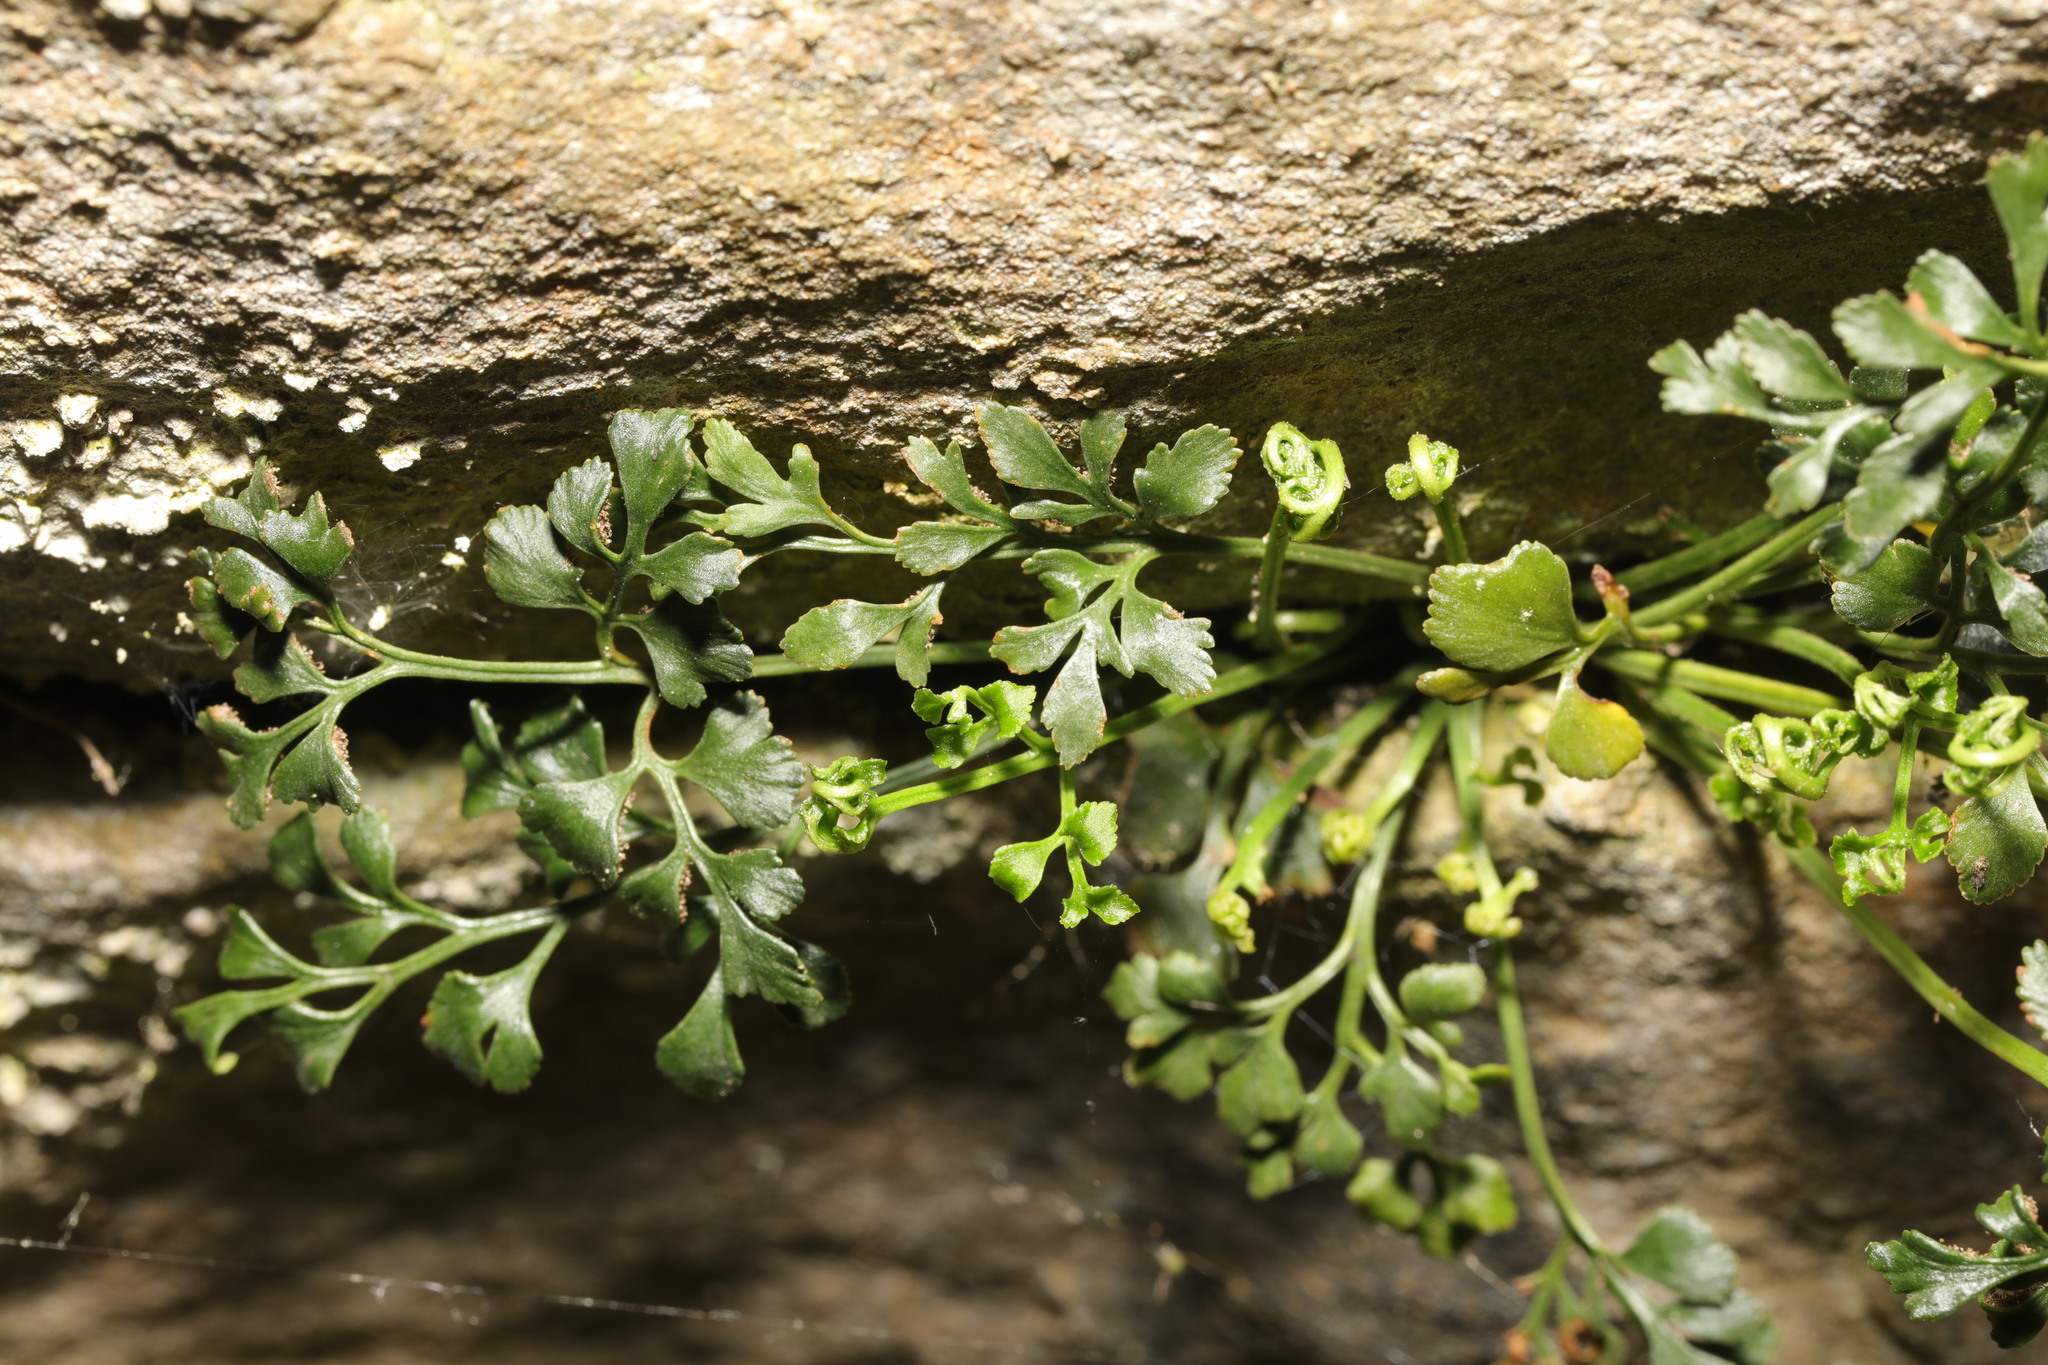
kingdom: Plantae
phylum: Tracheophyta
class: Polypodiopsida
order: Polypodiales
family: Aspleniaceae
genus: Asplenium
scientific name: Asplenium ruta-muraria
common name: Wall-rue
